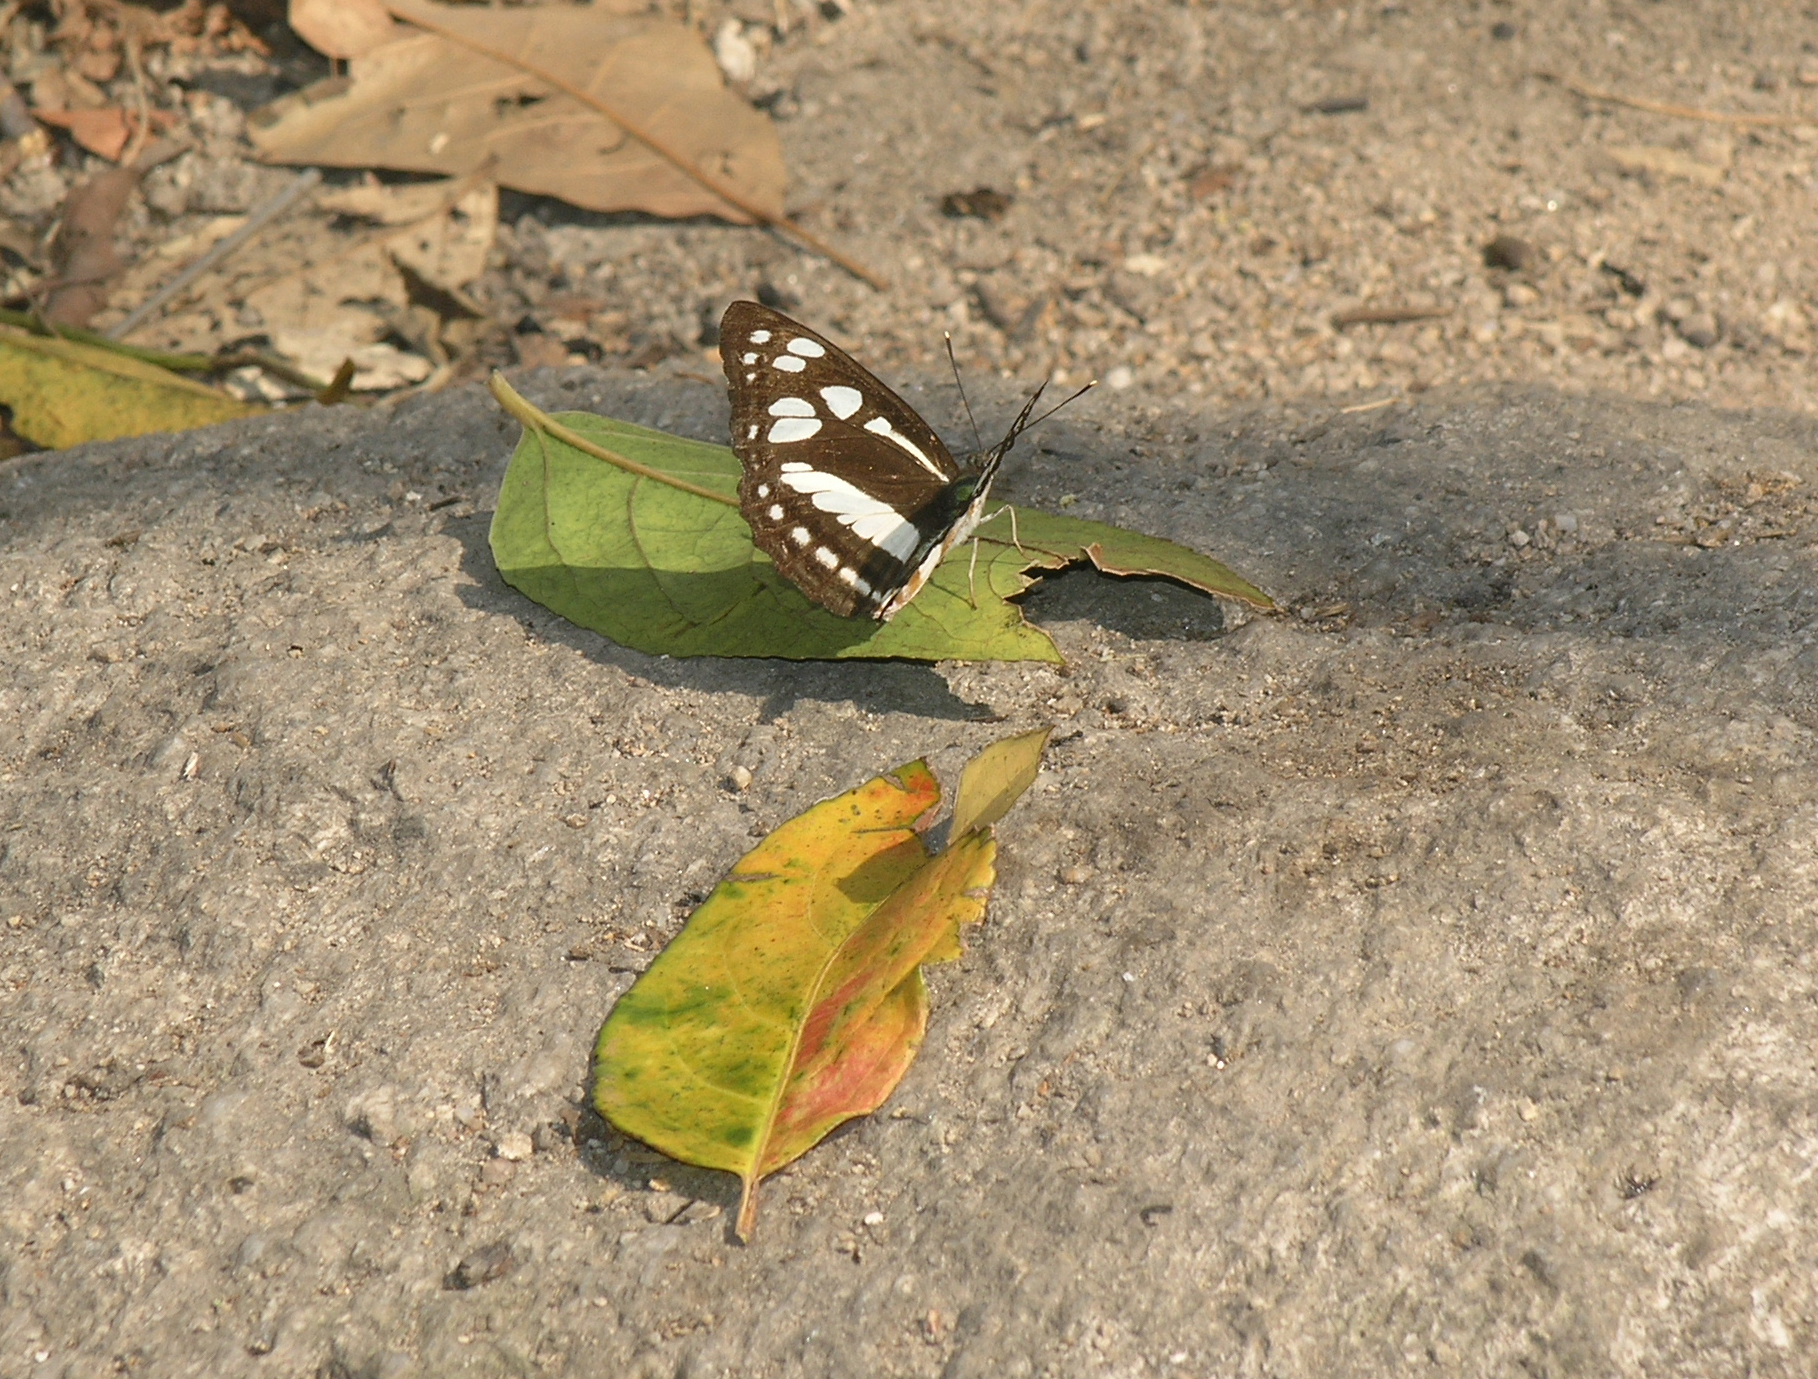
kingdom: Animalia
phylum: Arthropoda
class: Insecta
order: Lepidoptera
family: Nymphalidae
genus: Phaedyma
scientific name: Phaedyma columella
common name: Short banded sailer
